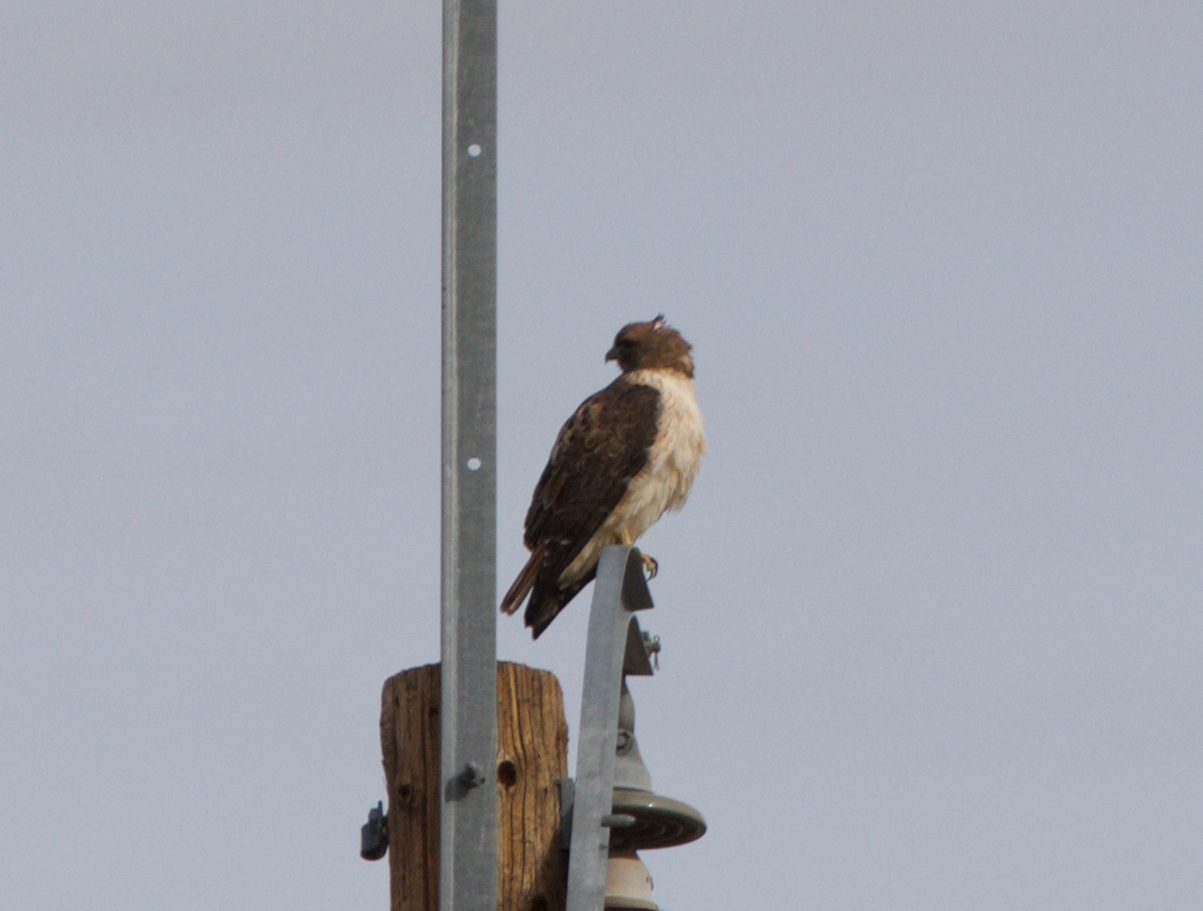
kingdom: Animalia
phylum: Chordata
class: Aves
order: Accipitriformes
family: Accipitridae
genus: Buteo
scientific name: Buteo jamaicensis
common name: Red-tailed hawk
